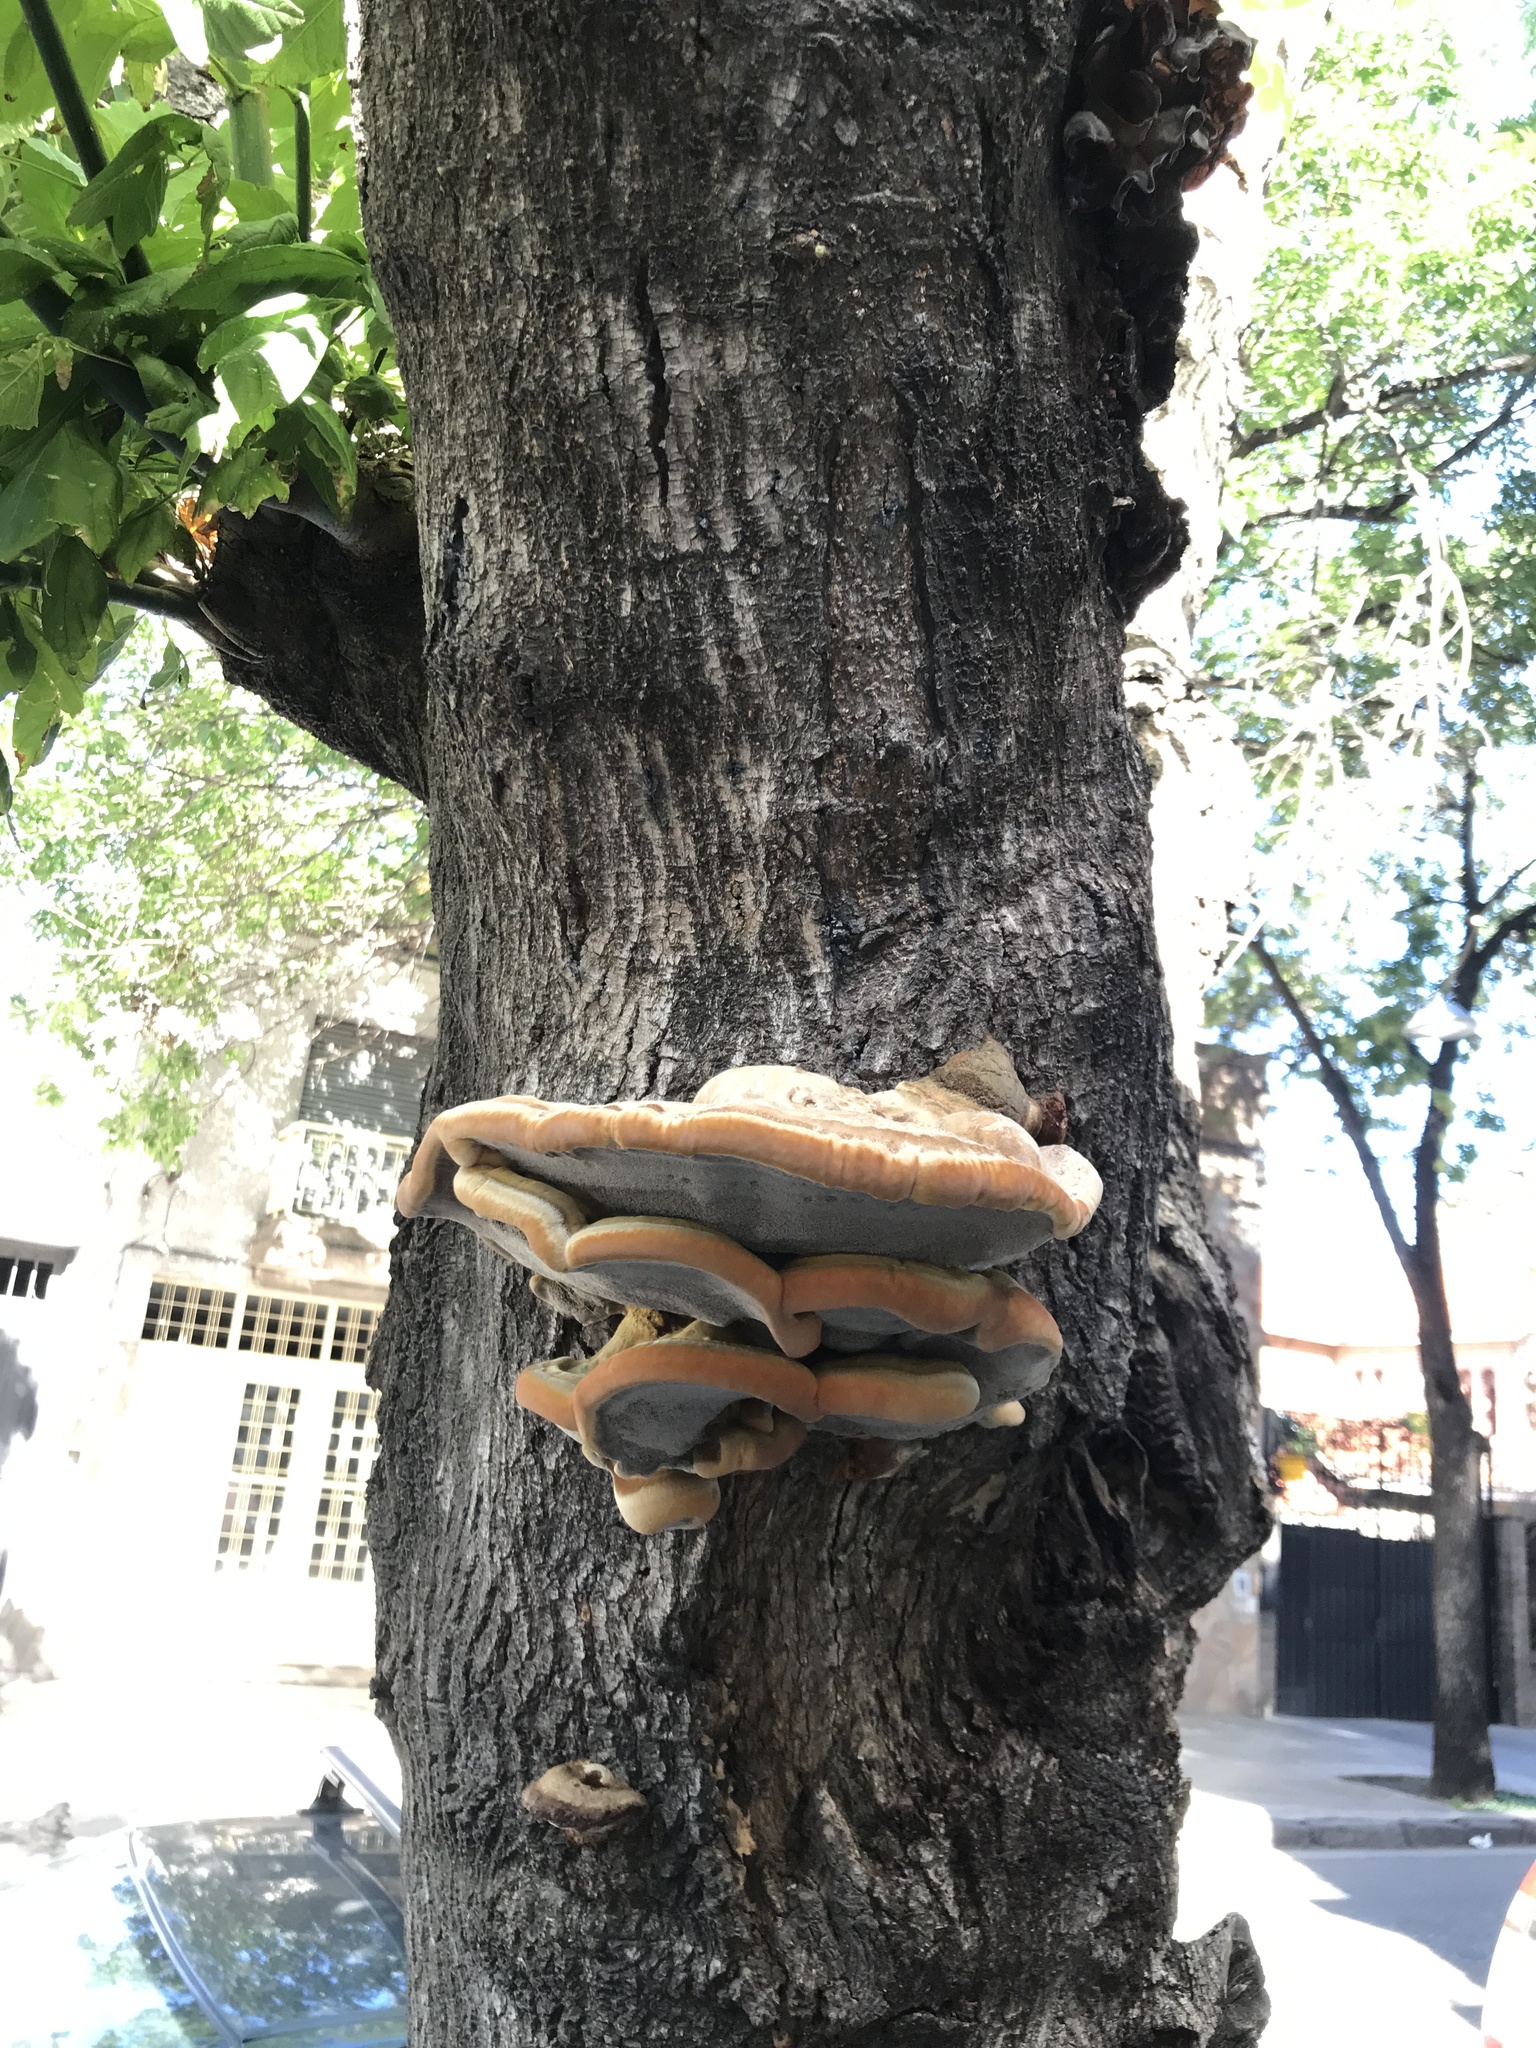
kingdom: Fungi
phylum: Basidiomycota
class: Agaricomycetes
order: Hymenochaetales
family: Hymenochaetaceae
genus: Inonotus
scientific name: Inonotus hispidus
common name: Shaggy bracket
